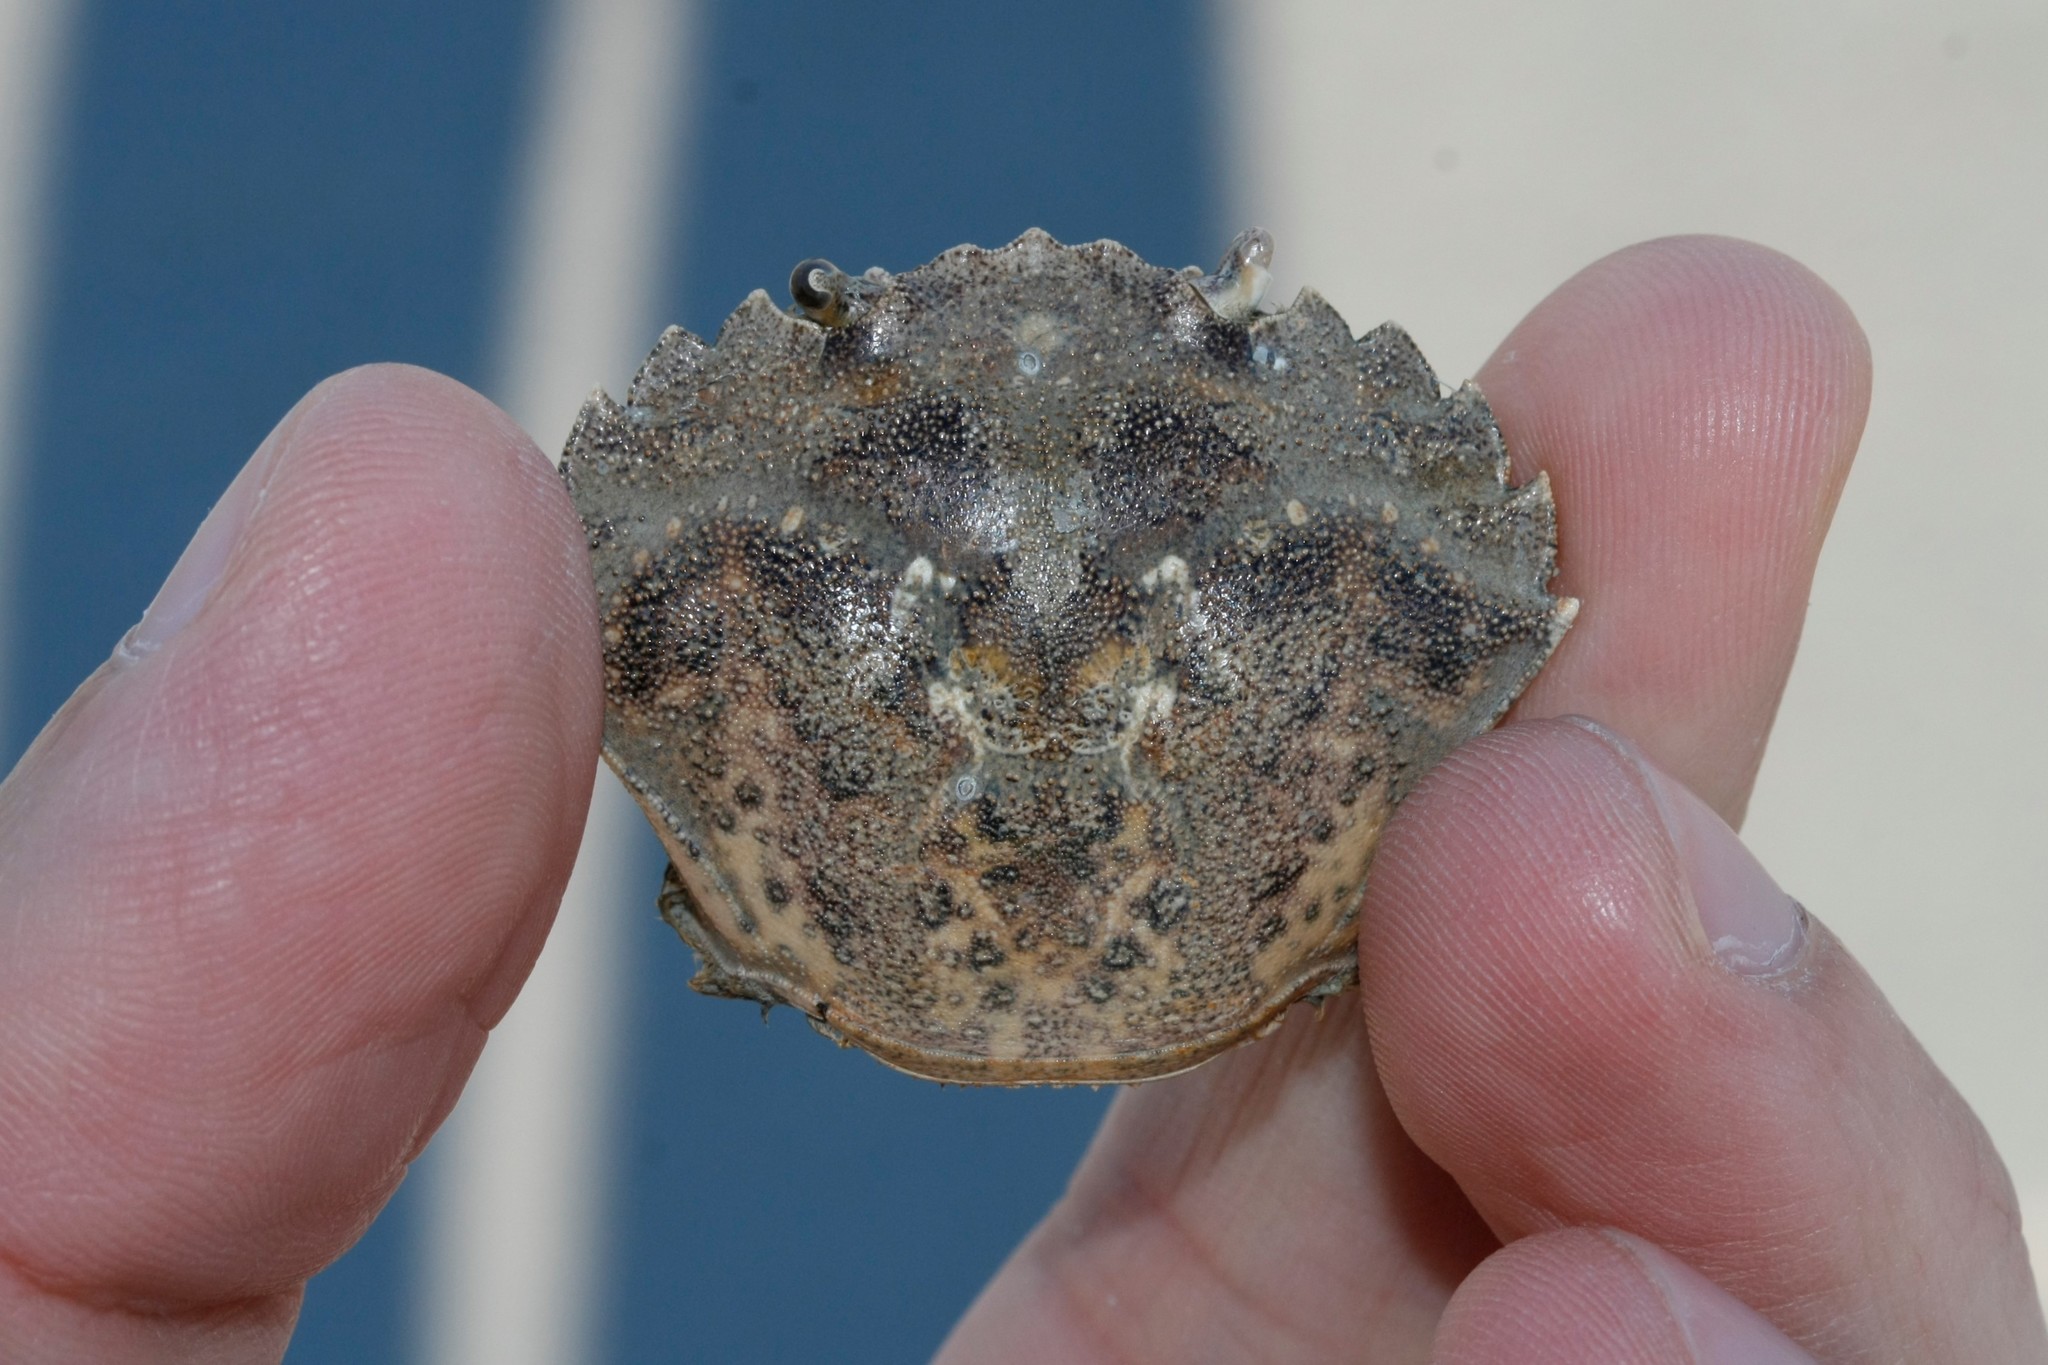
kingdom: Animalia
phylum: Arthropoda
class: Malacostraca
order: Decapoda
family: Carcinidae
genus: Carcinus
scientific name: Carcinus maenas
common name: European green crab
